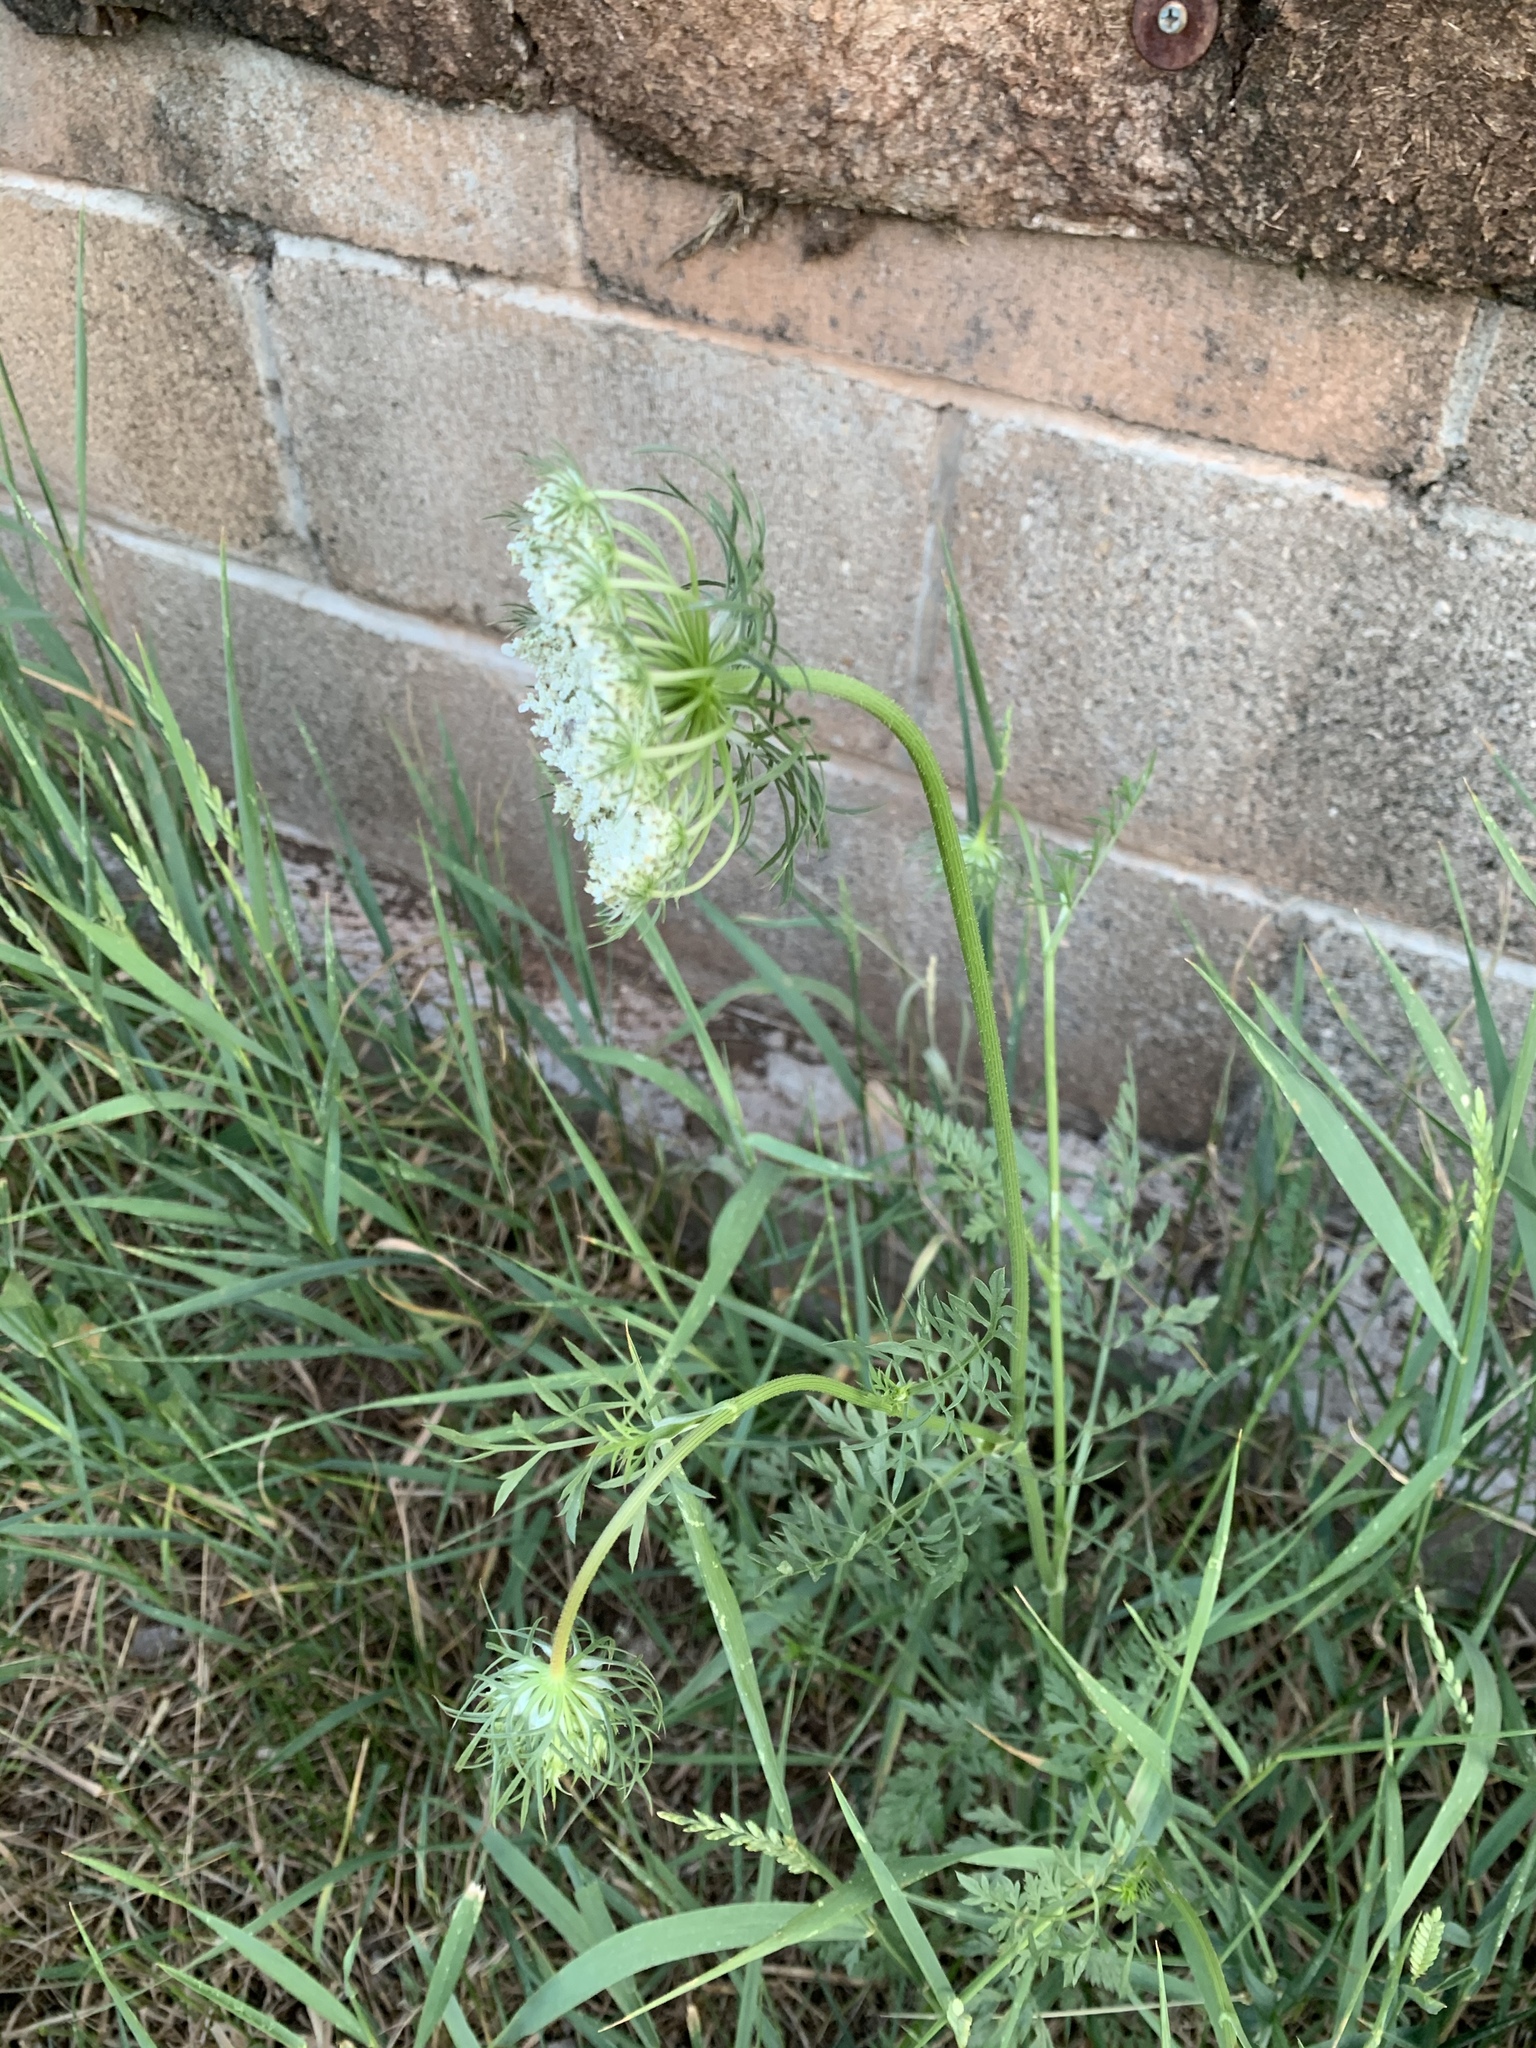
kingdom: Plantae
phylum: Tracheophyta
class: Magnoliopsida
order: Apiales
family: Apiaceae
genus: Daucus
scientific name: Daucus carota
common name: Wild carrot
